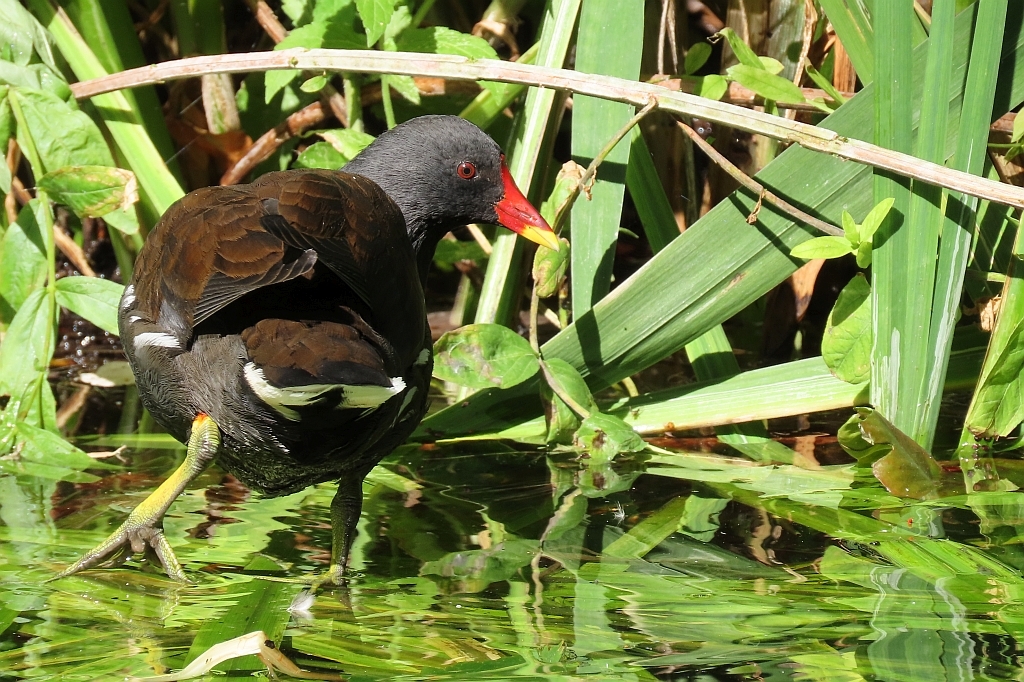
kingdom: Animalia
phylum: Chordata
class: Aves
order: Gruiformes
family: Rallidae
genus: Gallinula
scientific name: Gallinula chloropus
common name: Common moorhen
